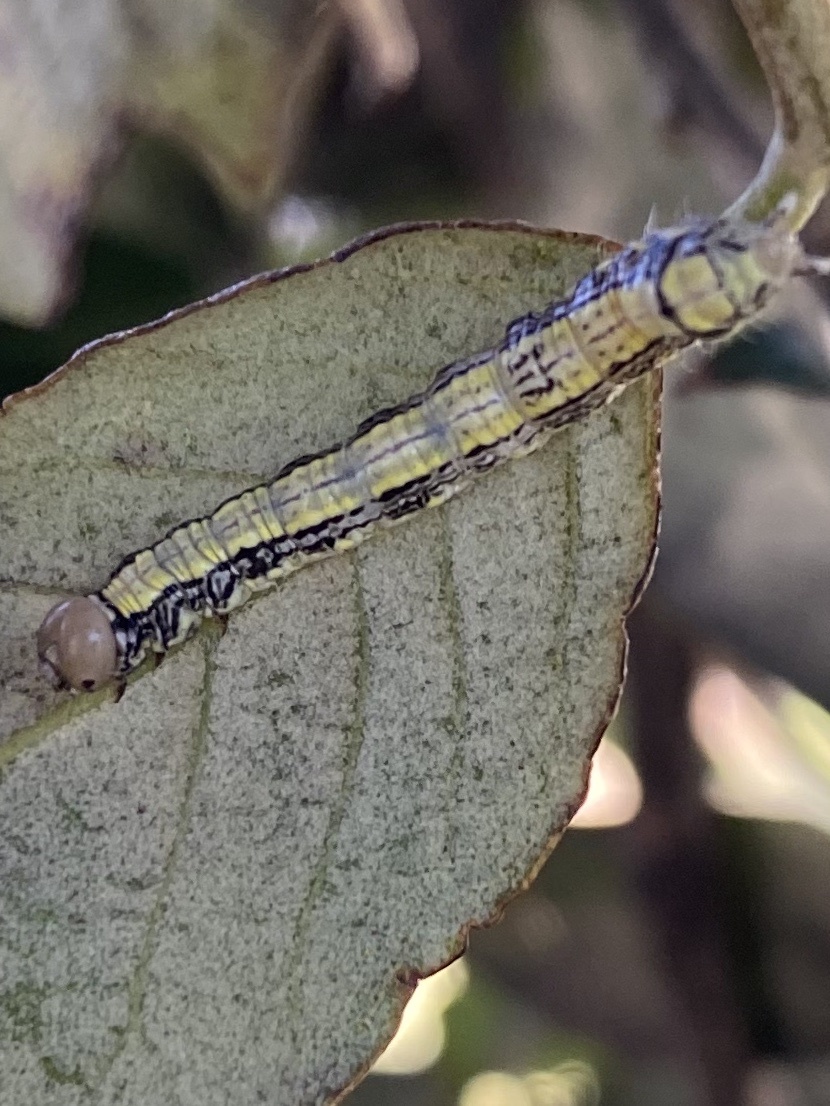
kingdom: Animalia
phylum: Arthropoda
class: Insecta
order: Lepidoptera
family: Notodontidae
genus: Phryganidia
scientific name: Phryganidia californica
